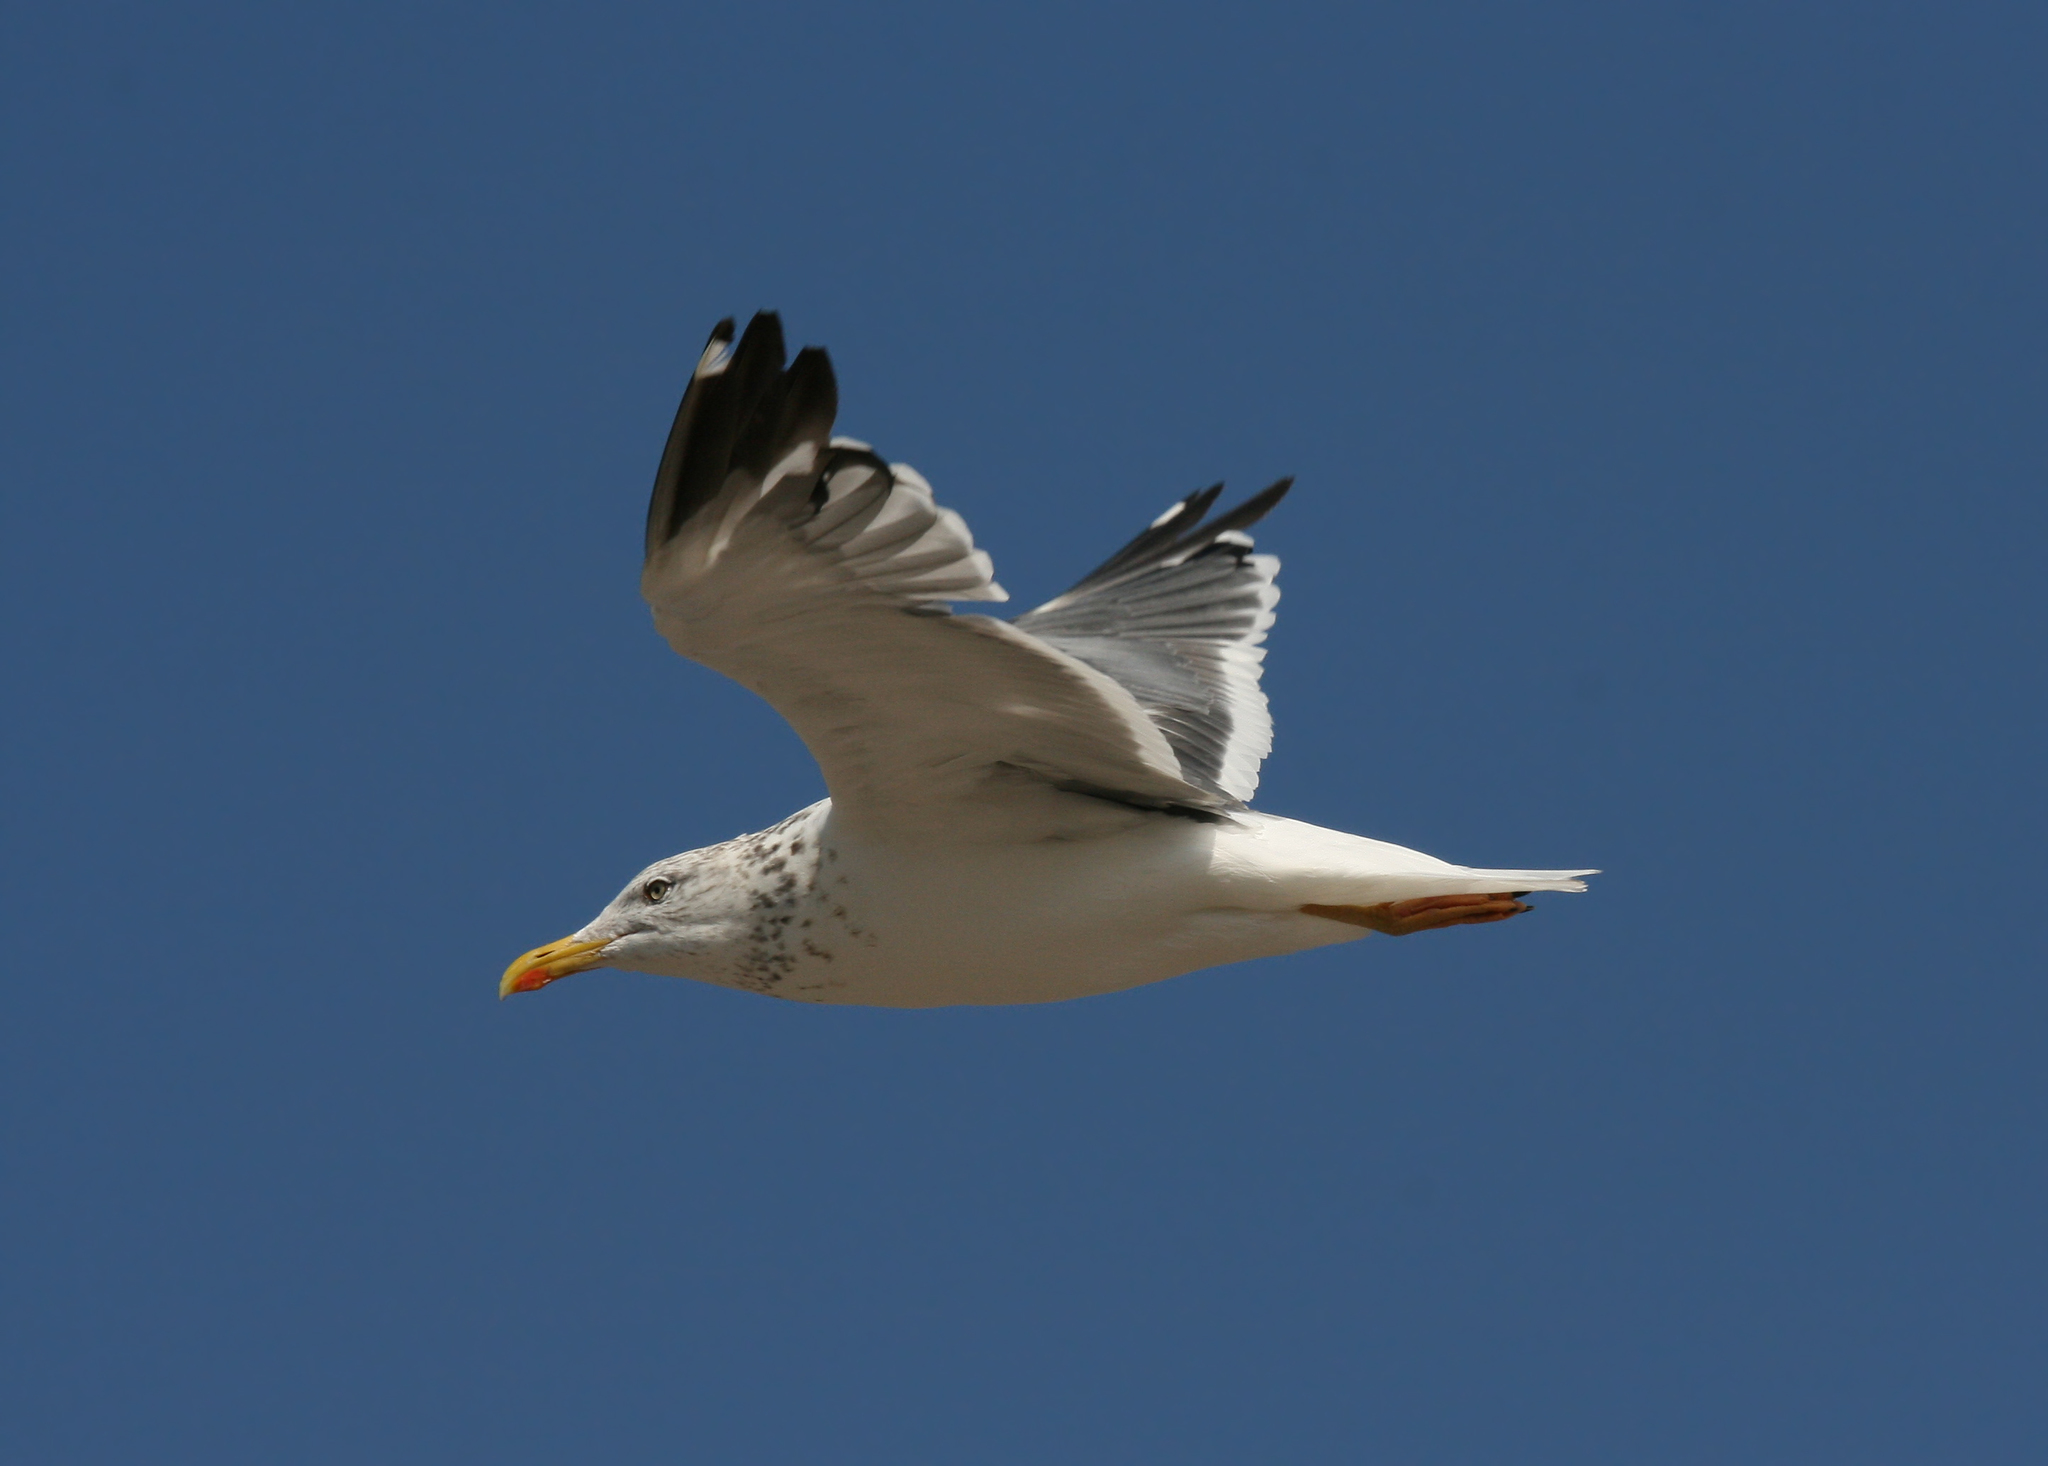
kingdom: Animalia
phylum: Chordata
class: Aves
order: Charadriiformes
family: Laridae
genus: Larus
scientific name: Larus fuscus
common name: Lesser black-backed gull
